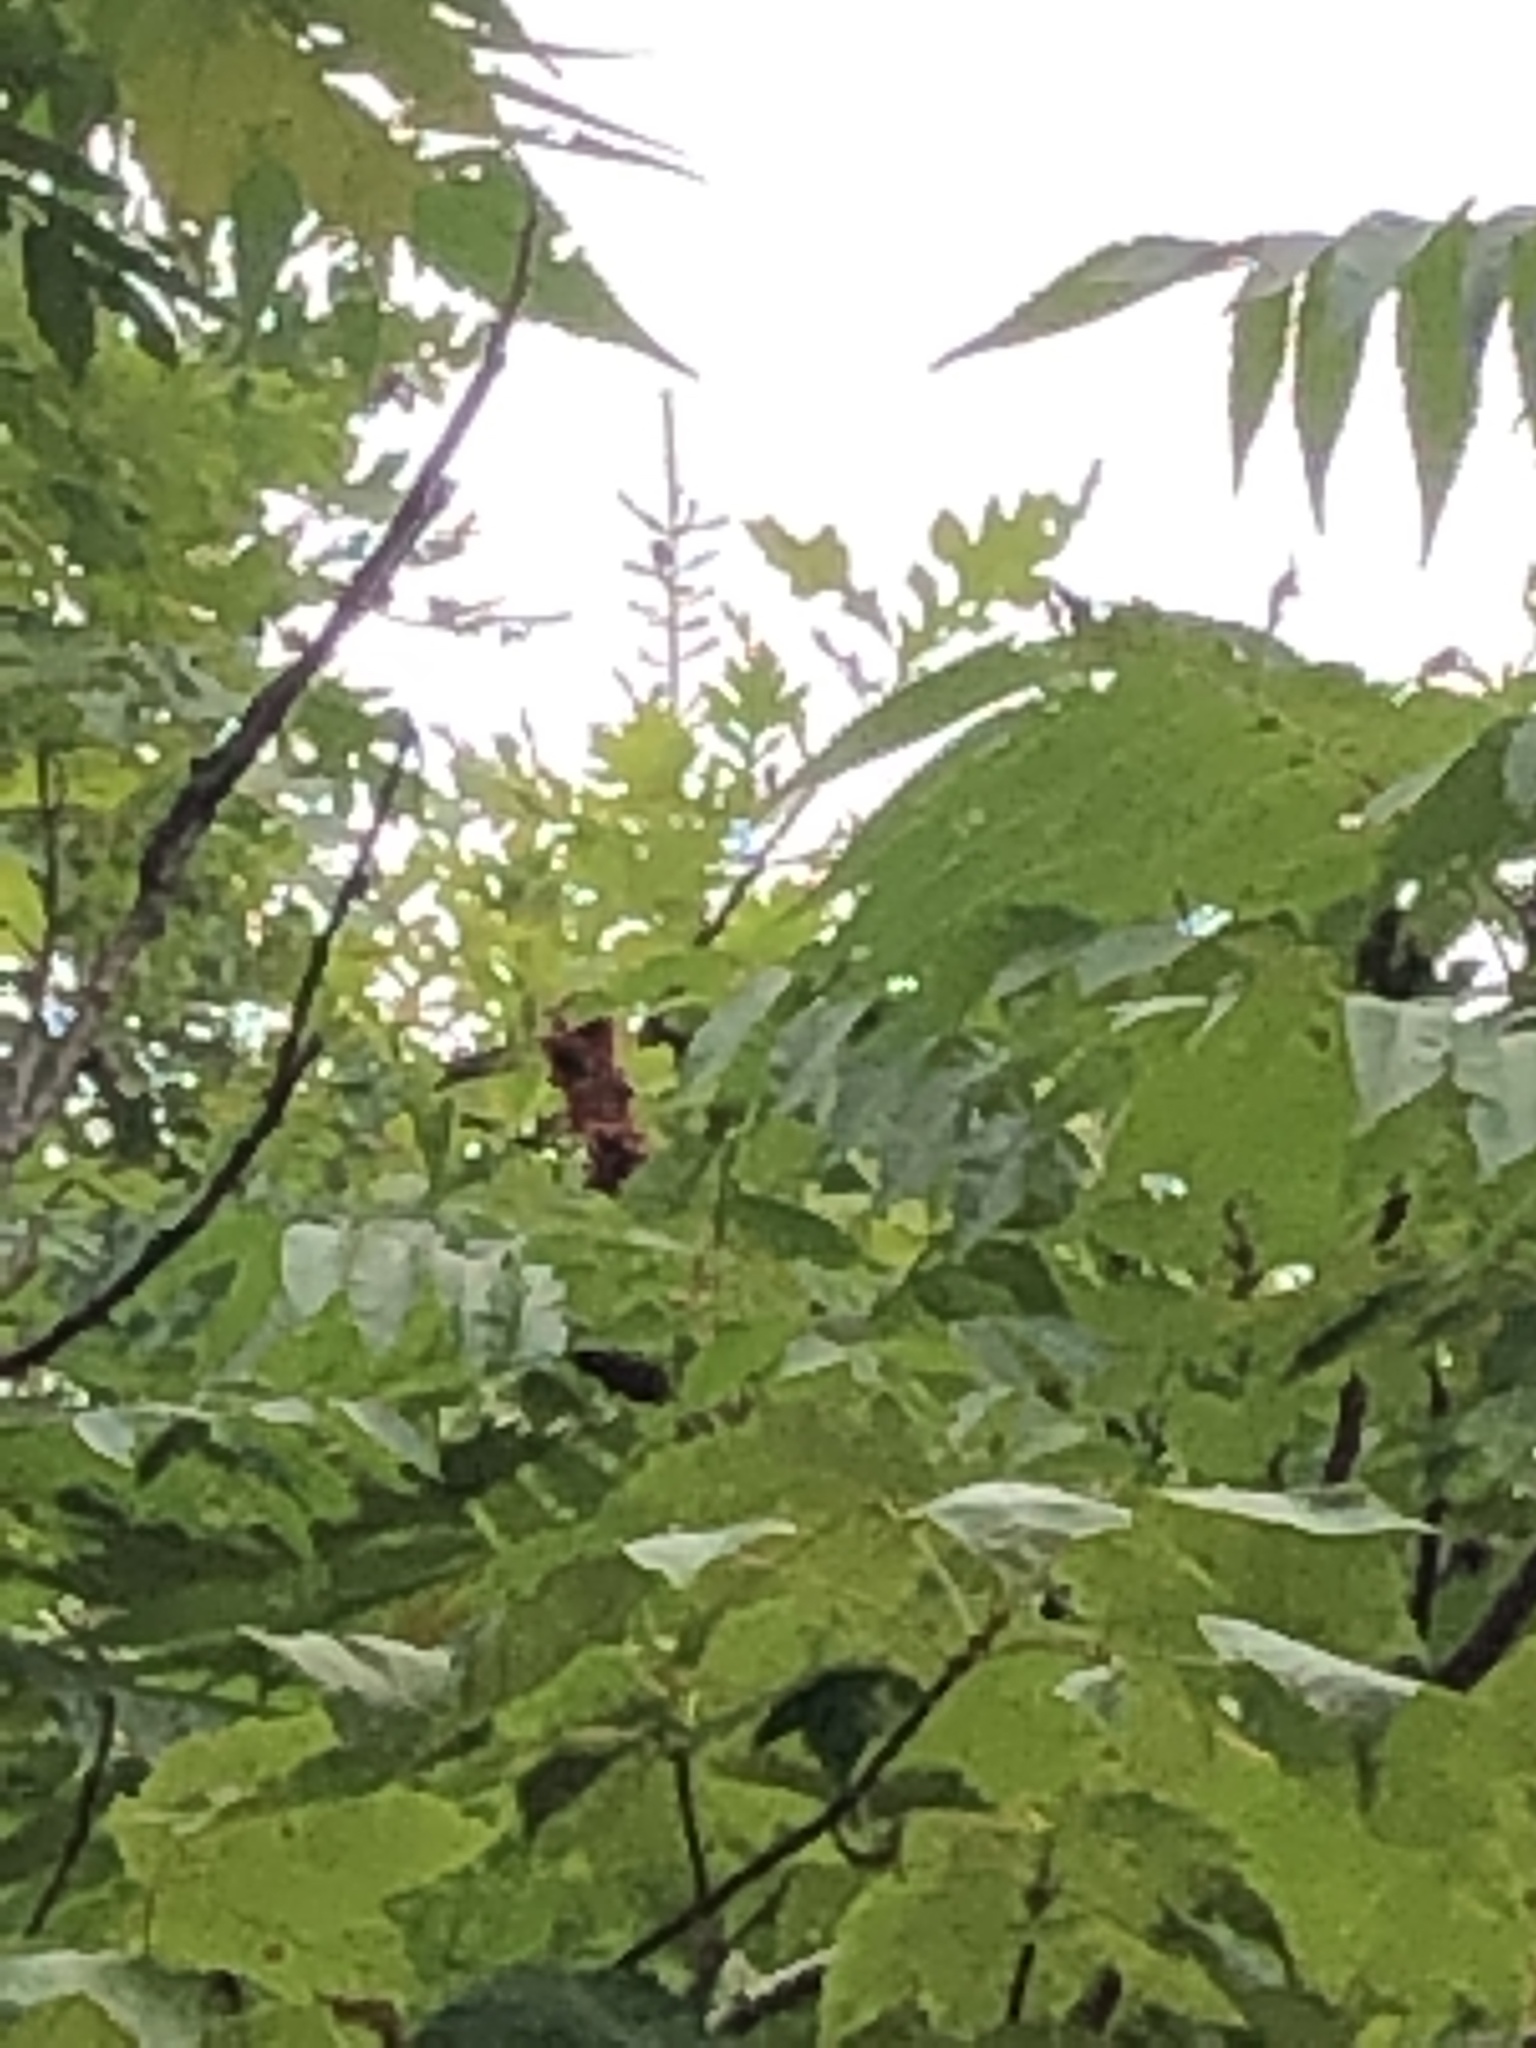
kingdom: Plantae
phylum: Tracheophyta
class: Magnoliopsida
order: Sapindales
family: Anacardiaceae
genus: Rhus
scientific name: Rhus typhina
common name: Staghorn sumac
